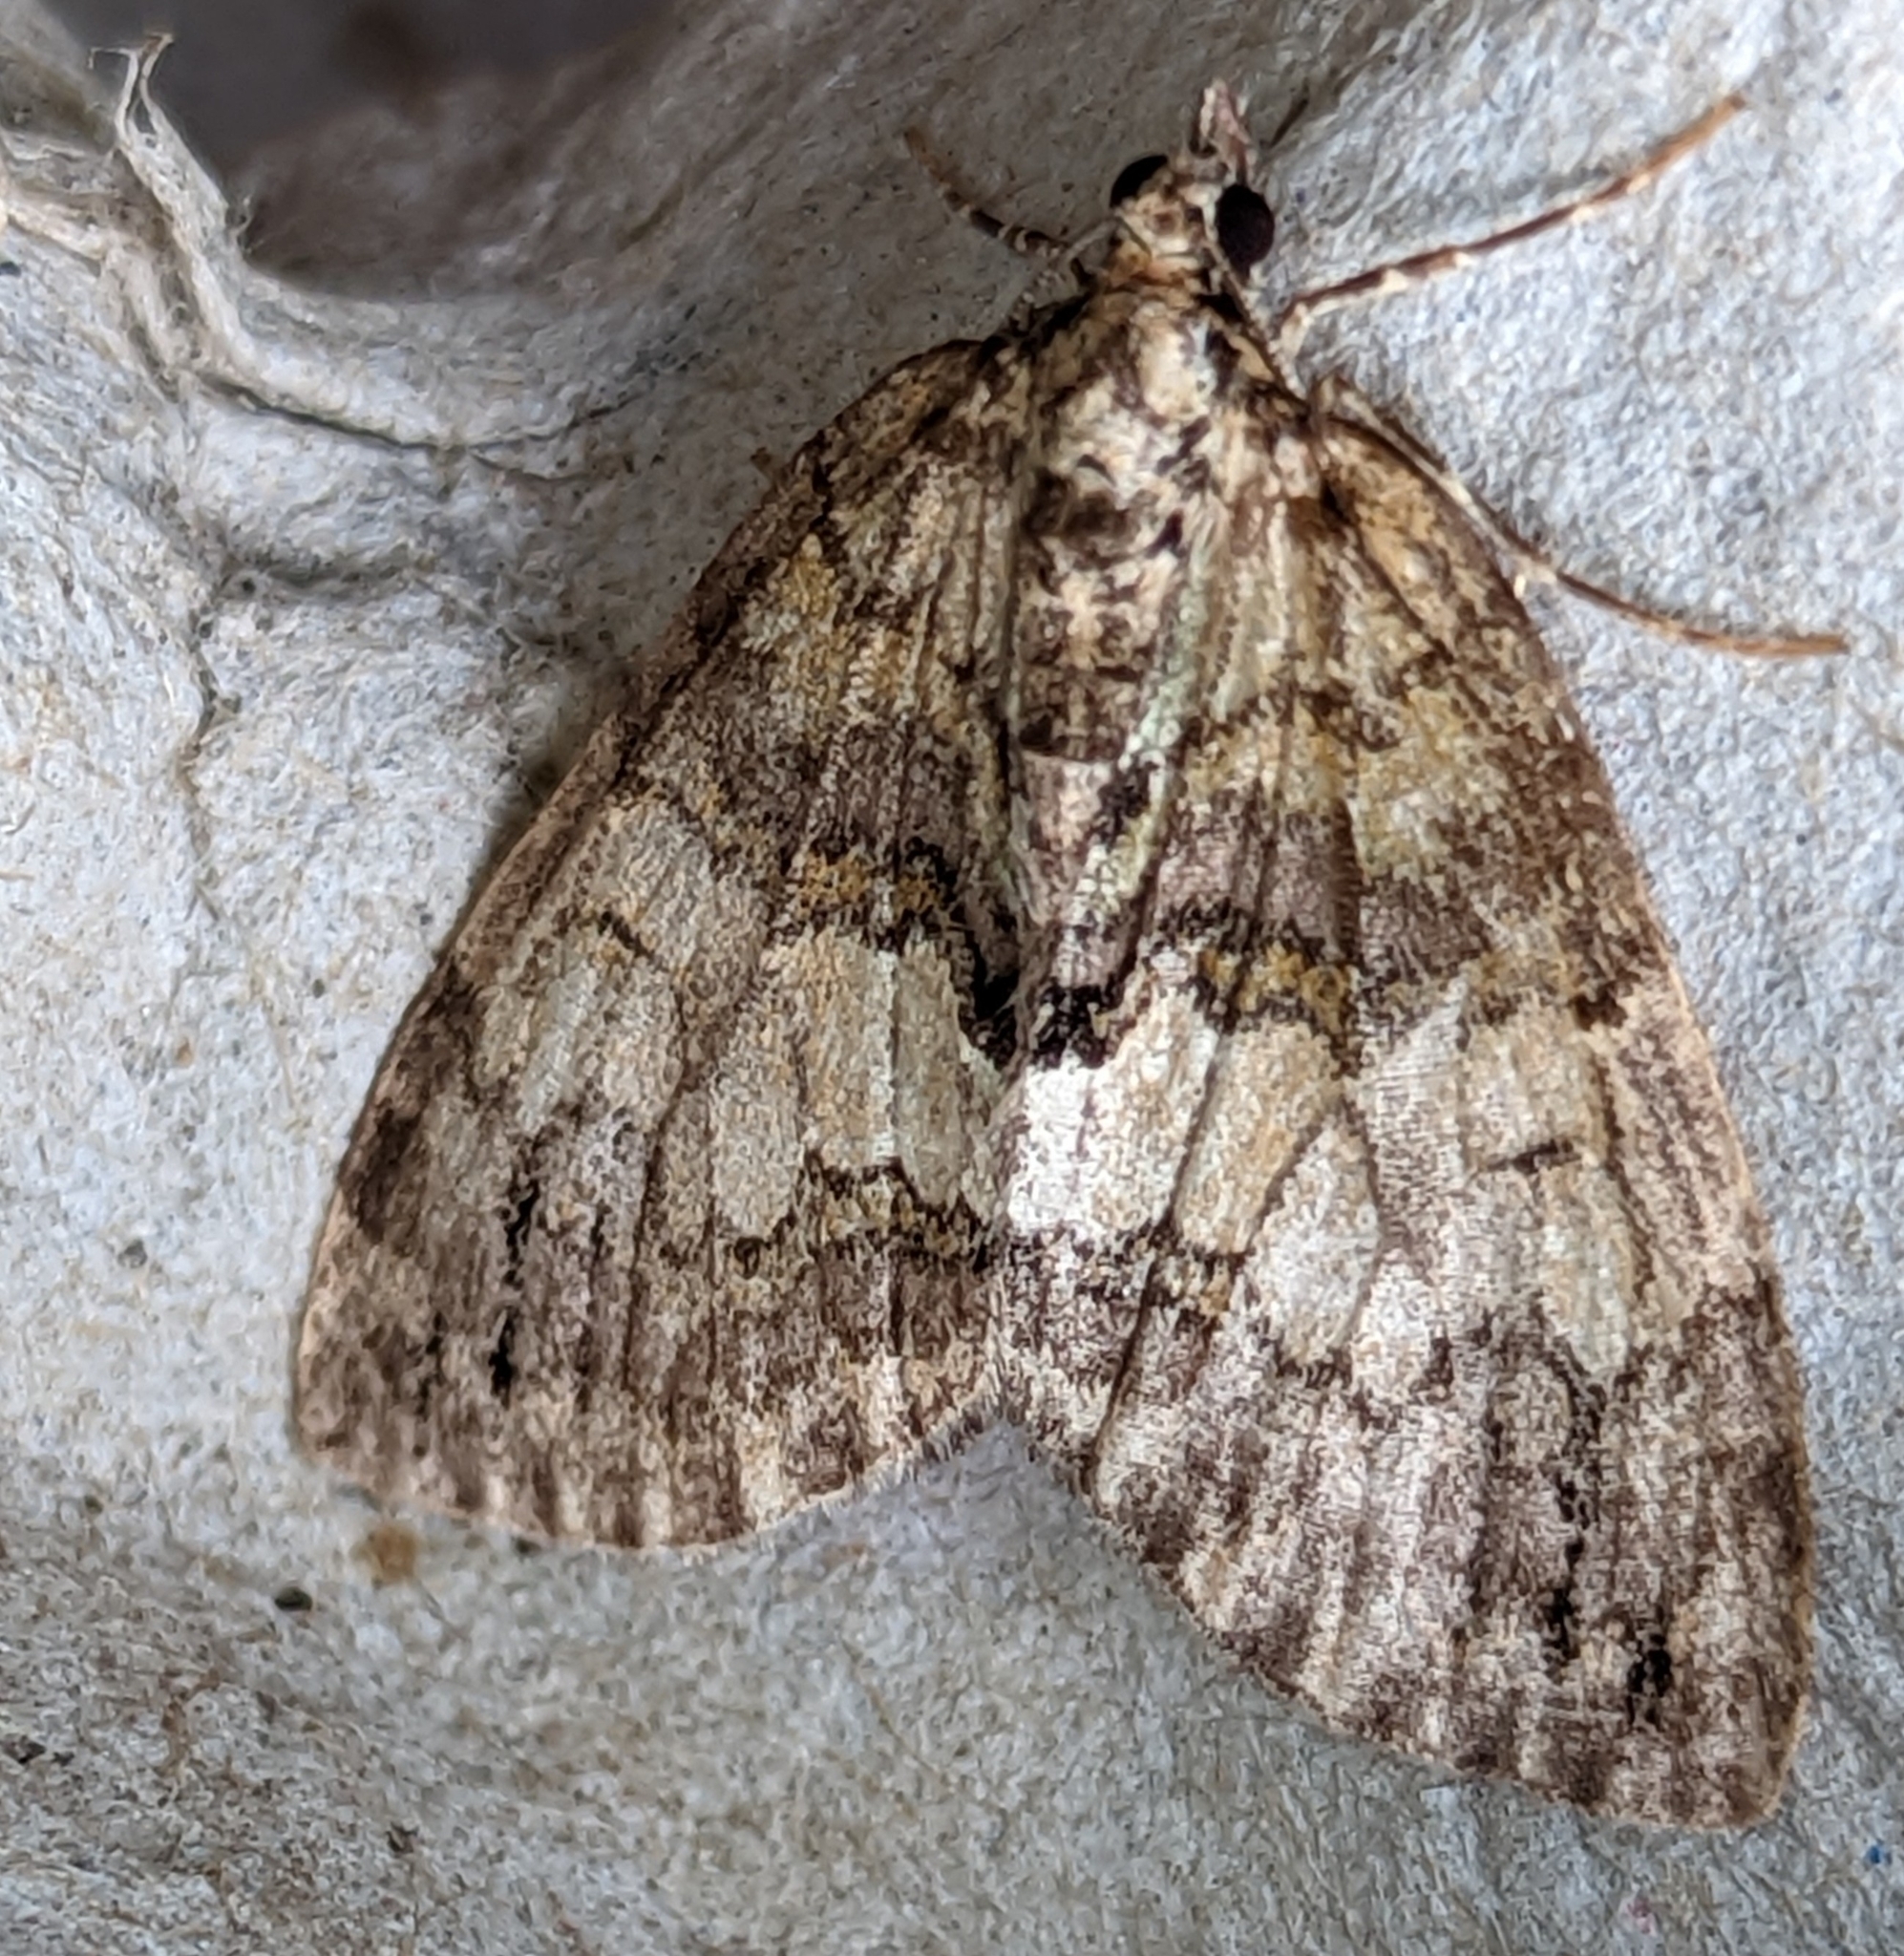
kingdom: Animalia
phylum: Arthropoda
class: Insecta
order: Lepidoptera
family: Geometridae
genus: Hydriomena
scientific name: Hydriomena impluviata
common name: May highflyer
